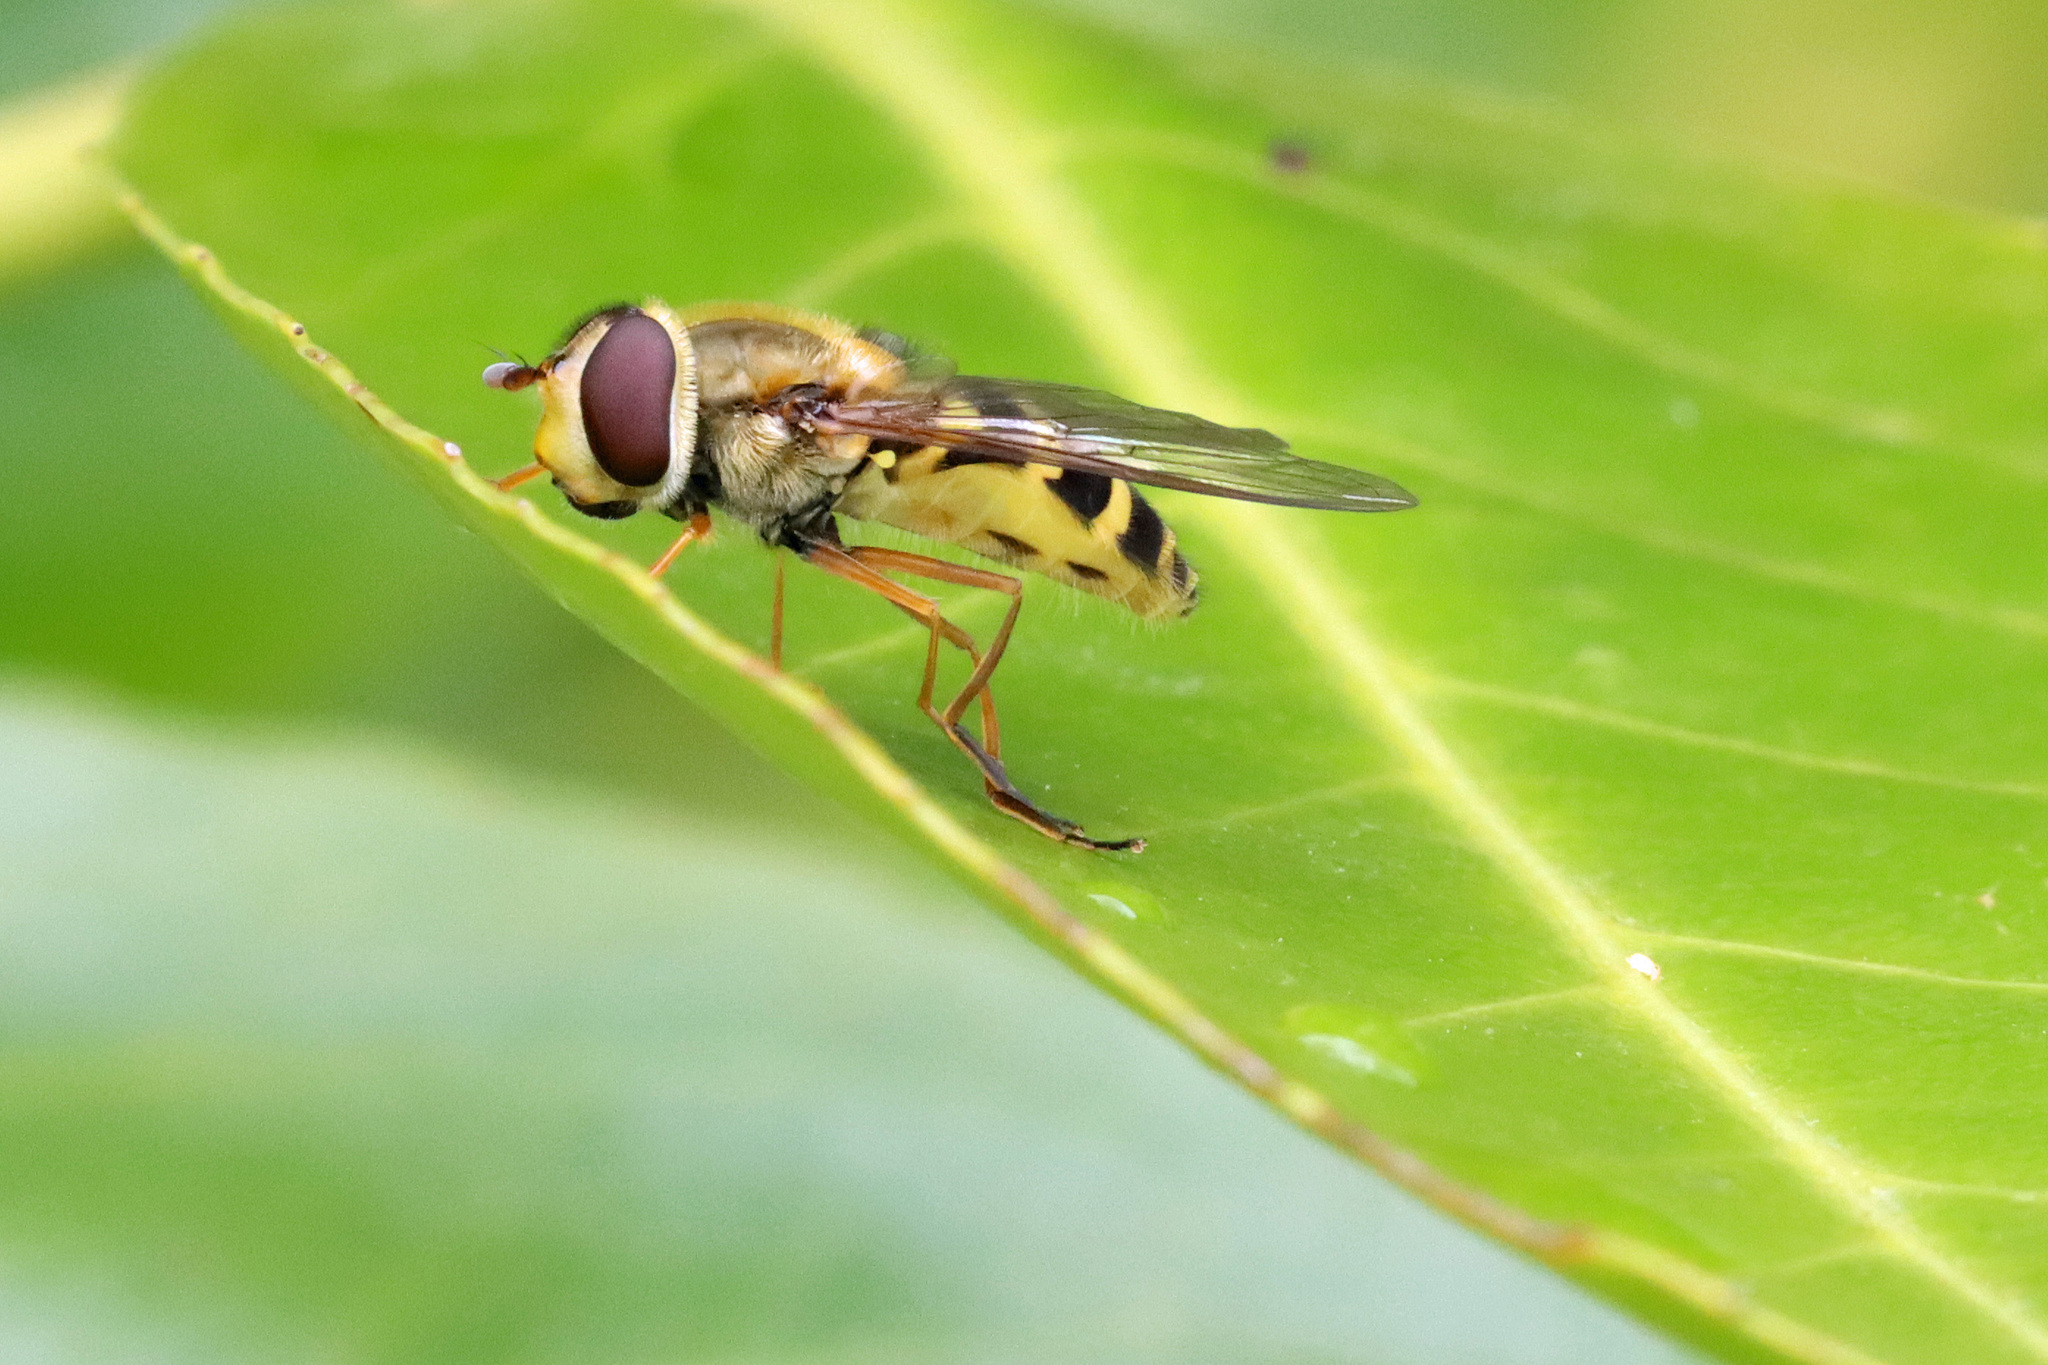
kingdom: Animalia
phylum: Arthropoda
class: Insecta
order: Diptera
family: Syrphidae
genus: Syrphus
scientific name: Syrphus ribesii
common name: Common flower fly
